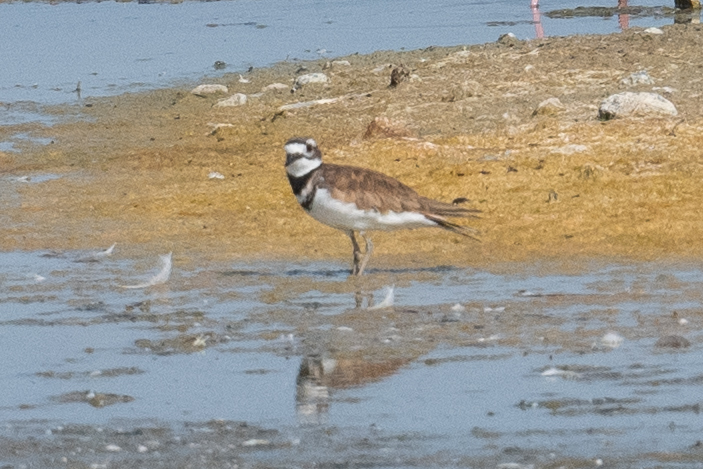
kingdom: Animalia
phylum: Chordata
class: Aves
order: Charadriiformes
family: Charadriidae
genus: Charadrius
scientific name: Charadrius vociferus
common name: Killdeer
